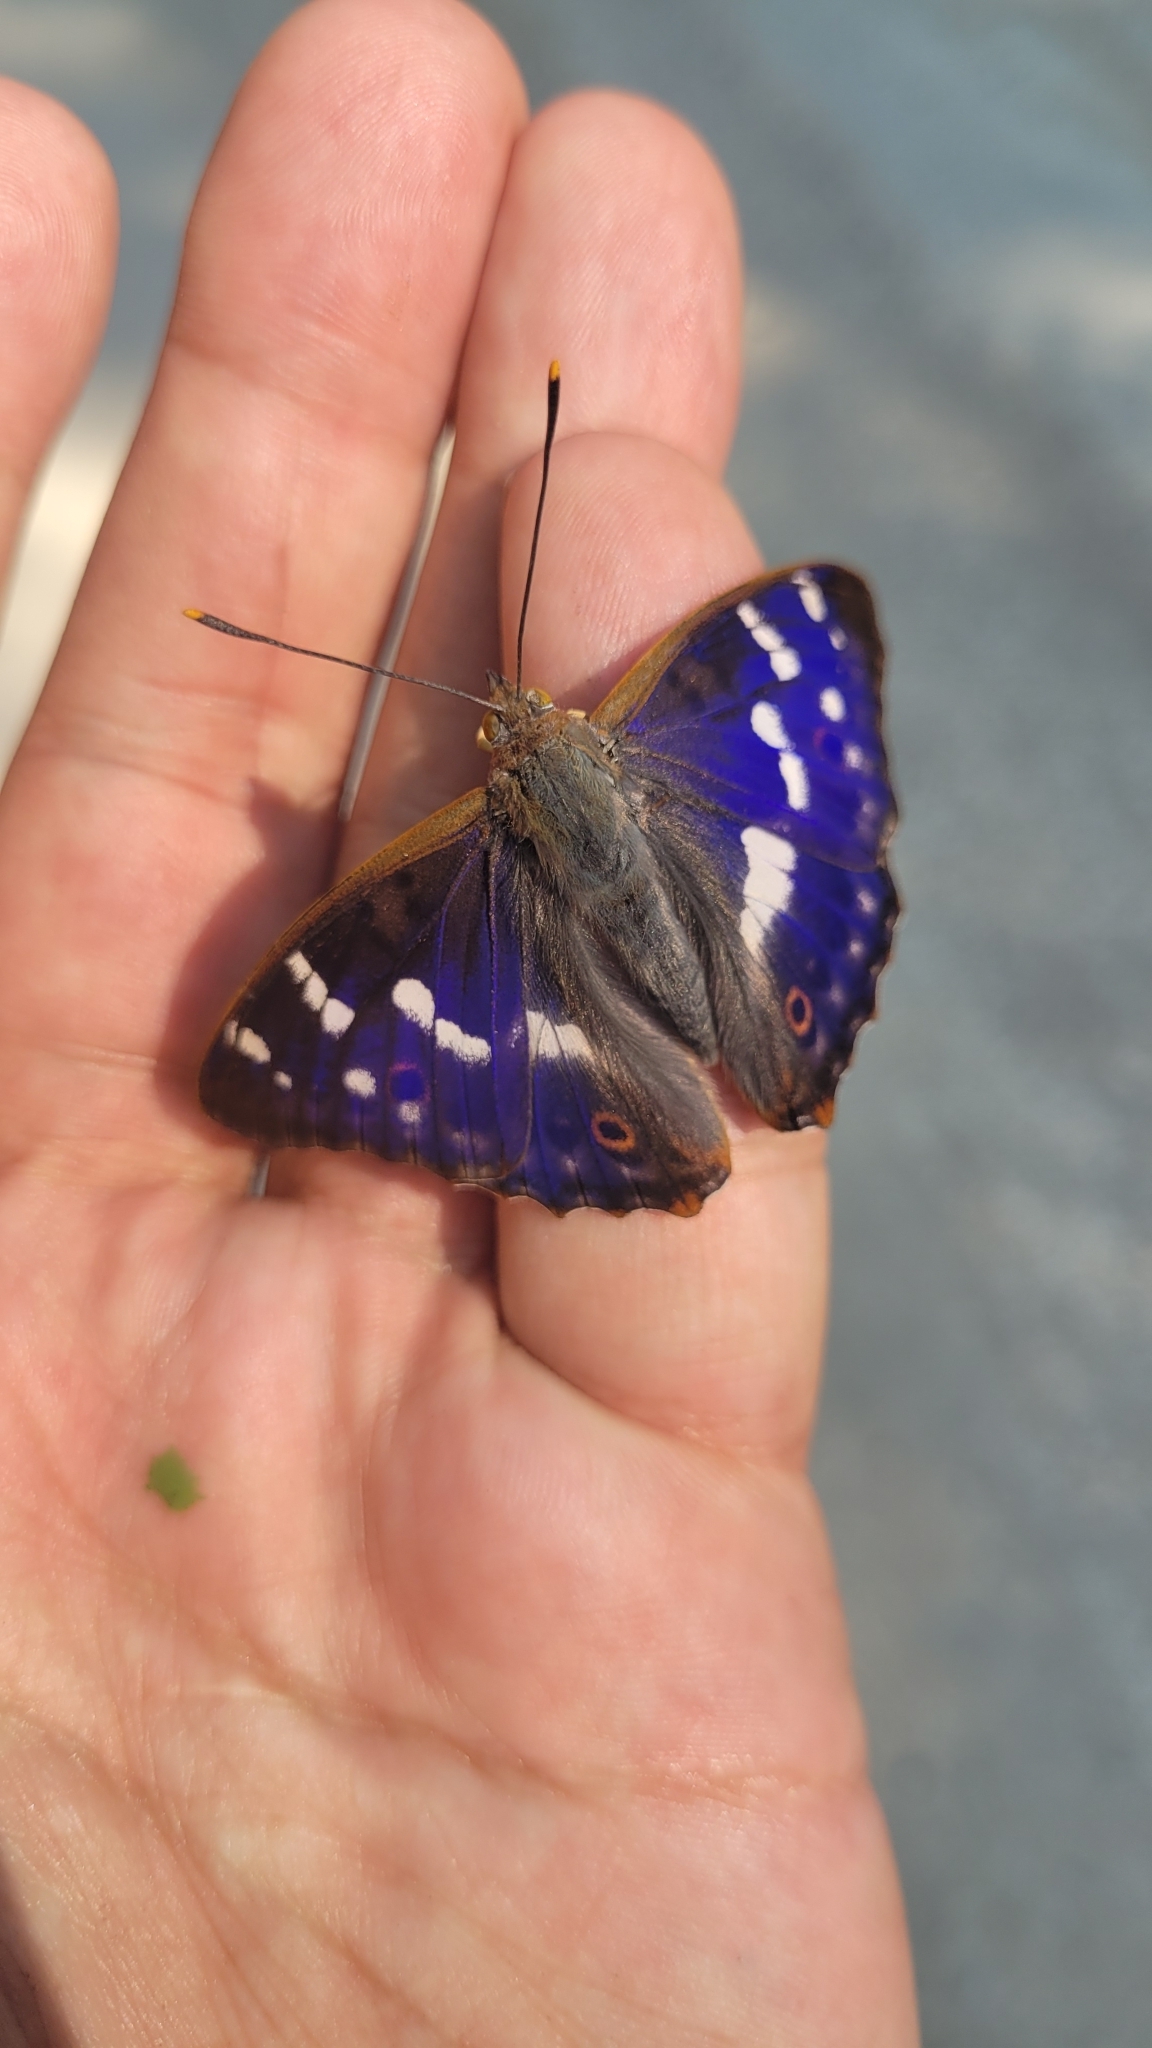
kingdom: Animalia
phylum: Arthropoda
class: Insecta
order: Lepidoptera
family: Nymphalidae
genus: Apatura
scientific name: Apatura ilia
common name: Lesser purple emperor
